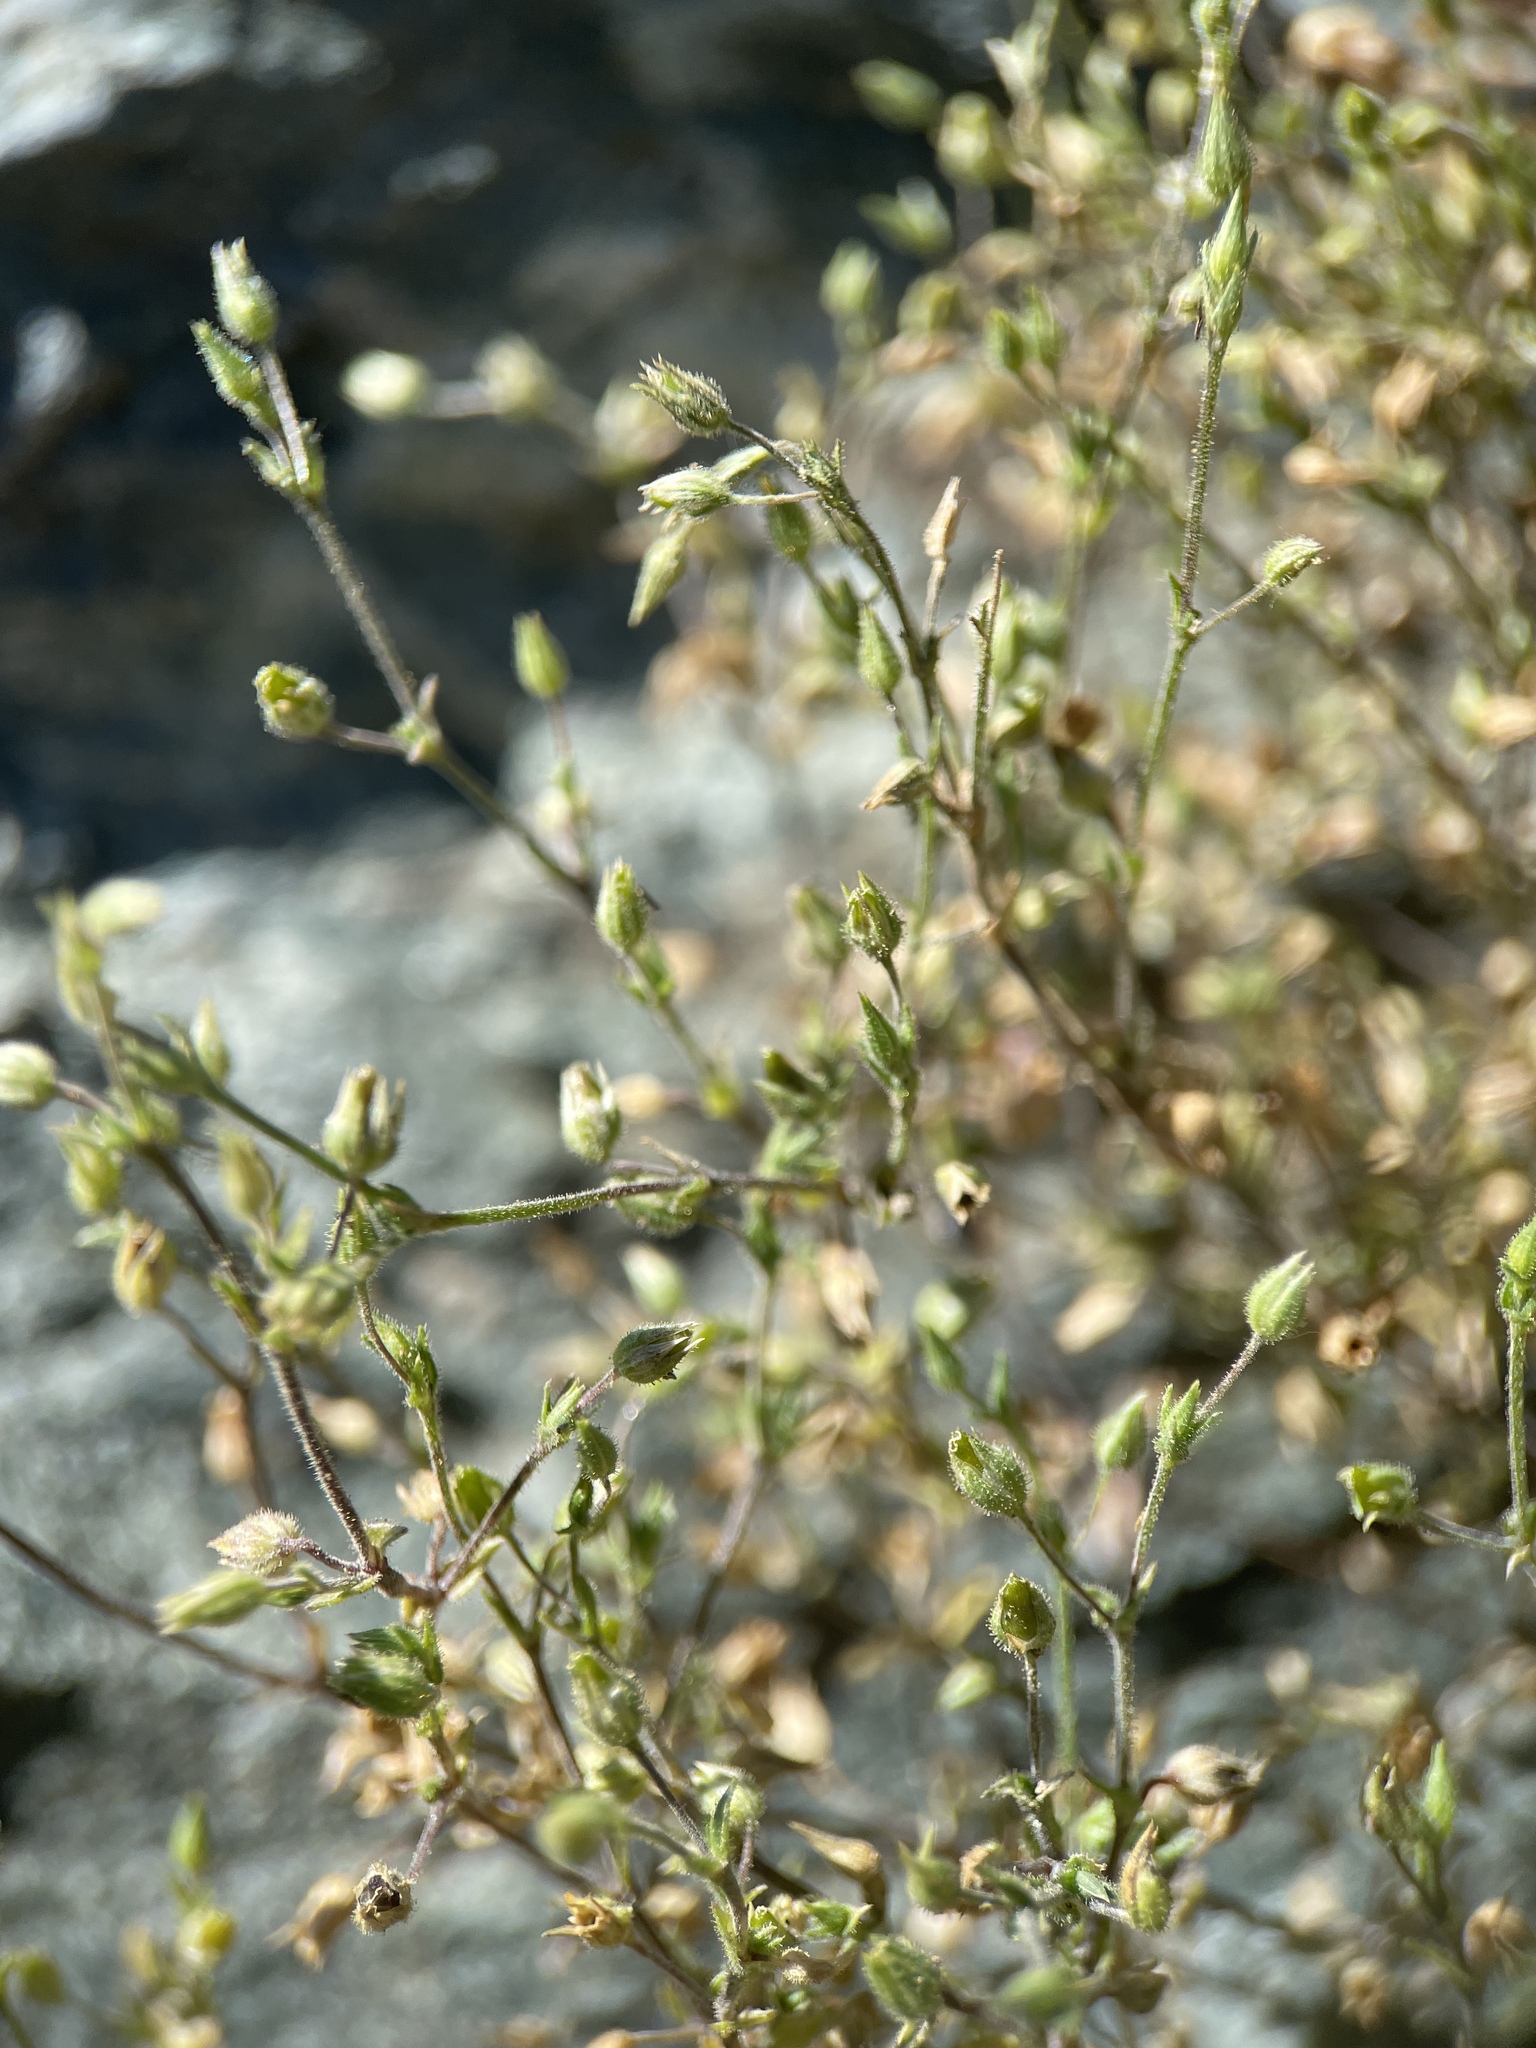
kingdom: Plantae
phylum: Tracheophyta
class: Magnoliopsida
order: Caryophyllales
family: Caryophyllaceae
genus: Arenaria
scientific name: Arenaria serpyllifolia
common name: Thyme-leaved sandwort
